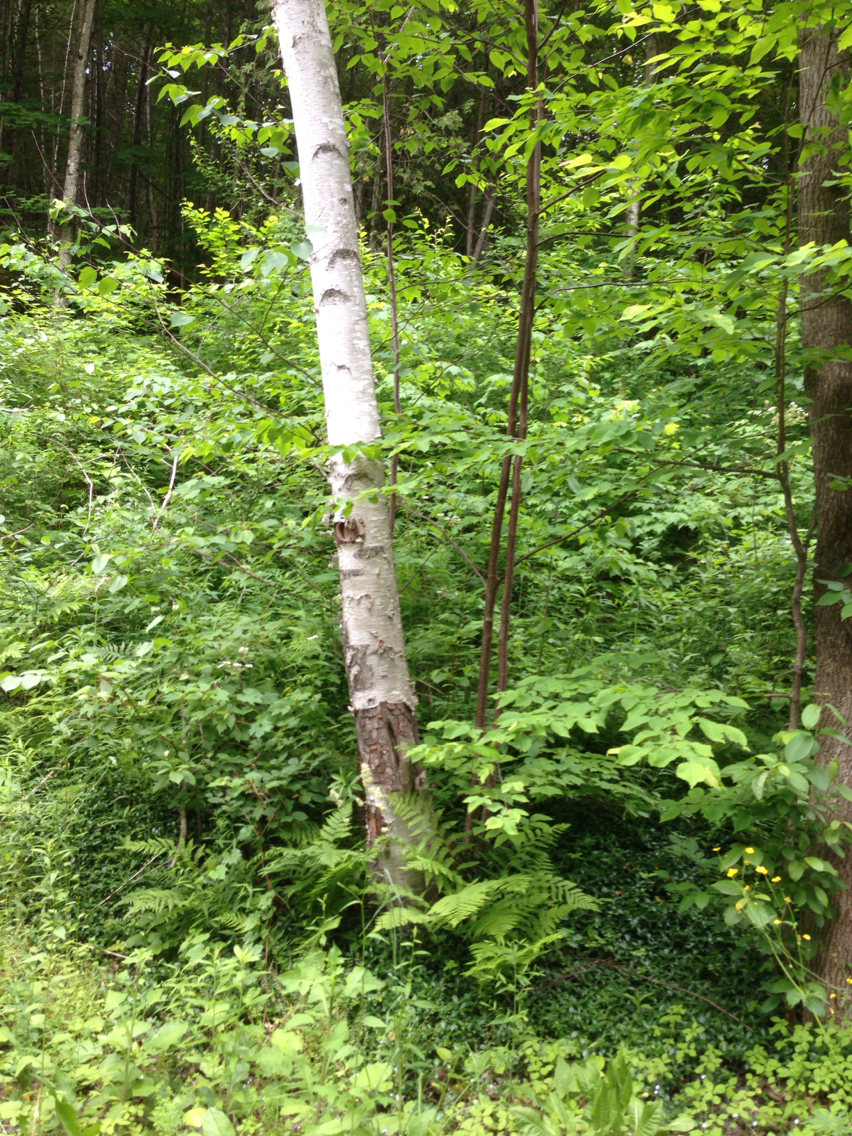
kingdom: Plantae
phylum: Tracheophyta
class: Magnoliopsida
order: Fagales
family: Betulaceae
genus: Betula
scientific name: Betula papyrifera
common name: Paper birch
